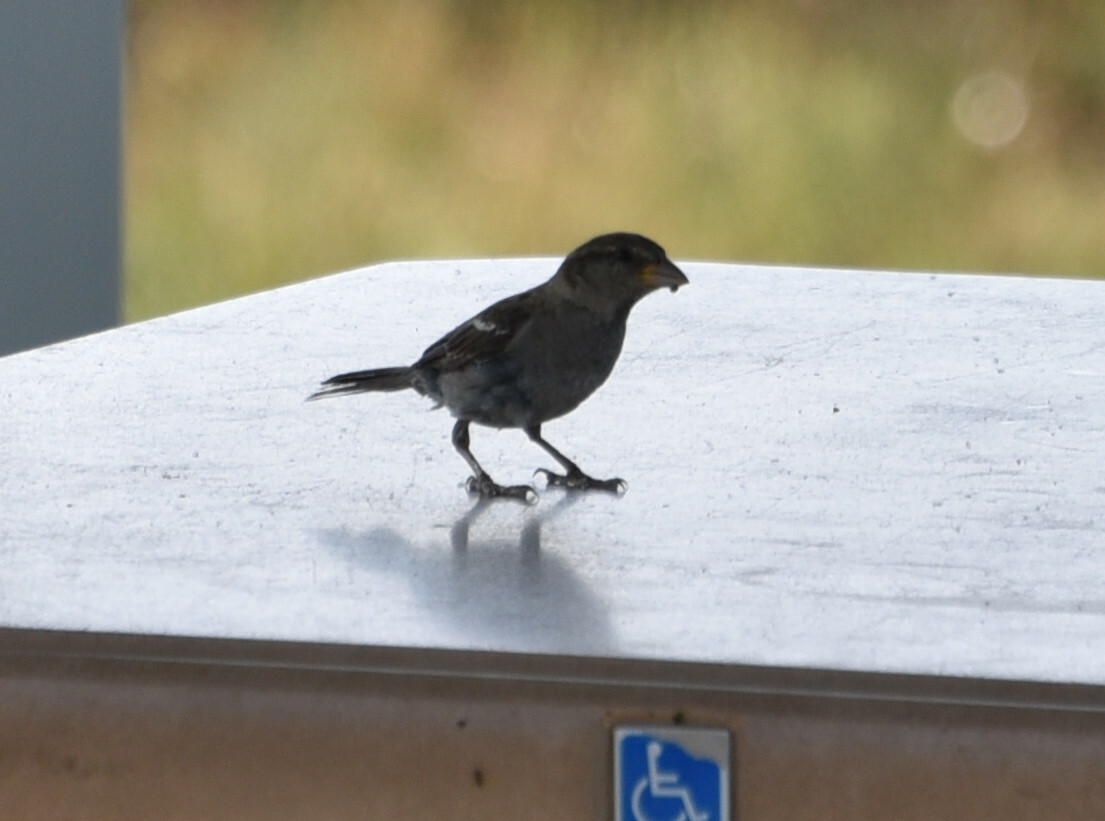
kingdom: Animalia
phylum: Chordata
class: Aves
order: Passeriformes
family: Passeridae
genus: Passer
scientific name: Passer domesticus
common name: House sparrow
